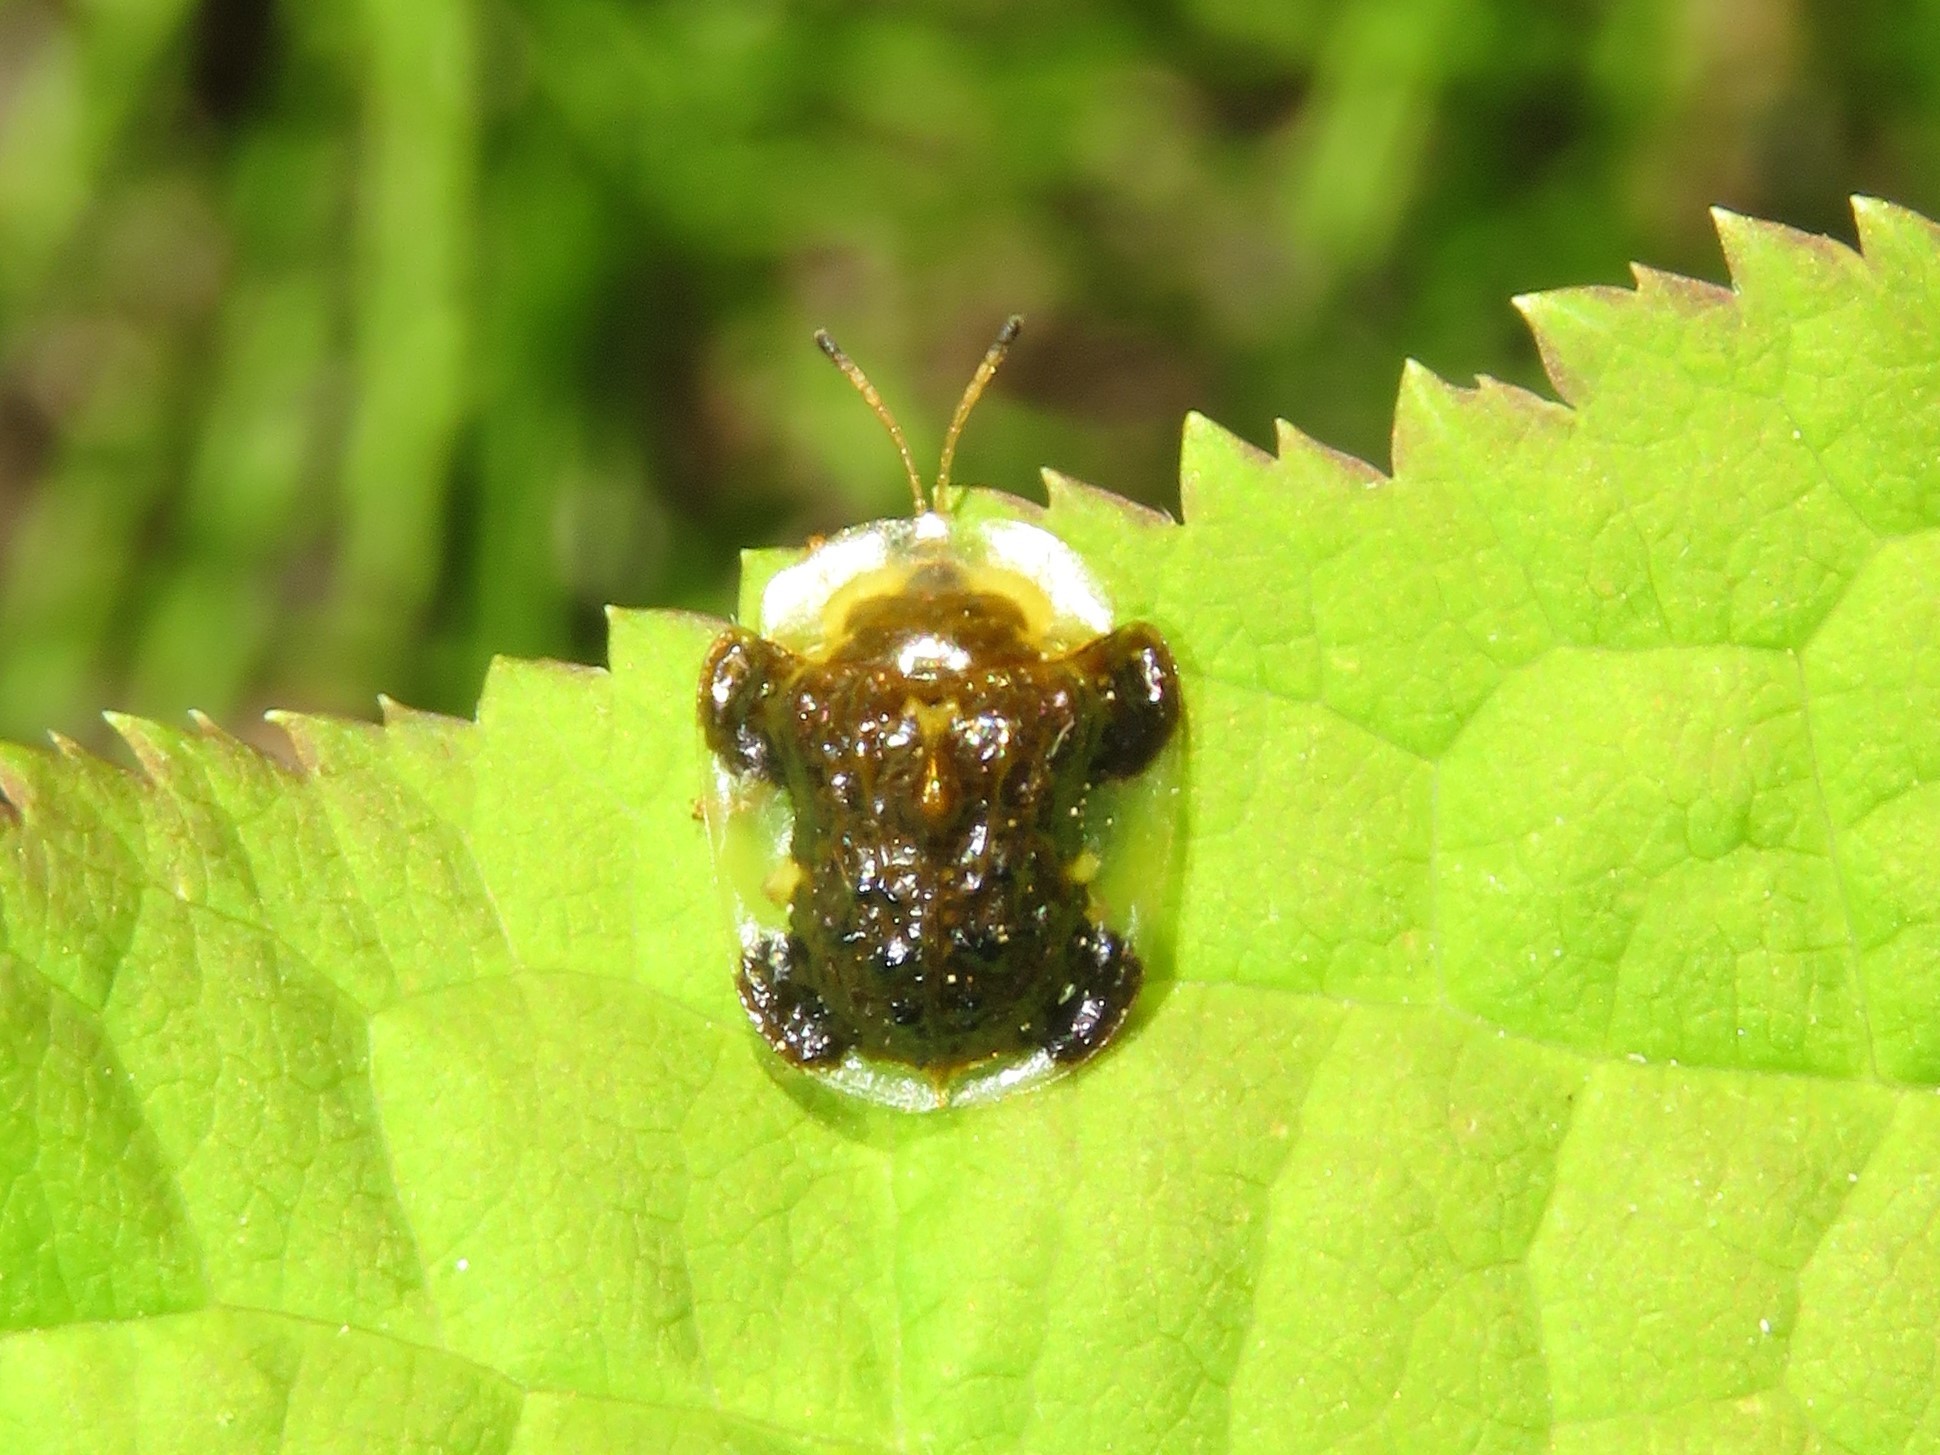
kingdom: Animalia
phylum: Arthropoda
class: Insecta
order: Coleoptera
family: Chrysomelidae
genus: Helocassis
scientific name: Helocassis clavata
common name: Clavate tortoise beetle
